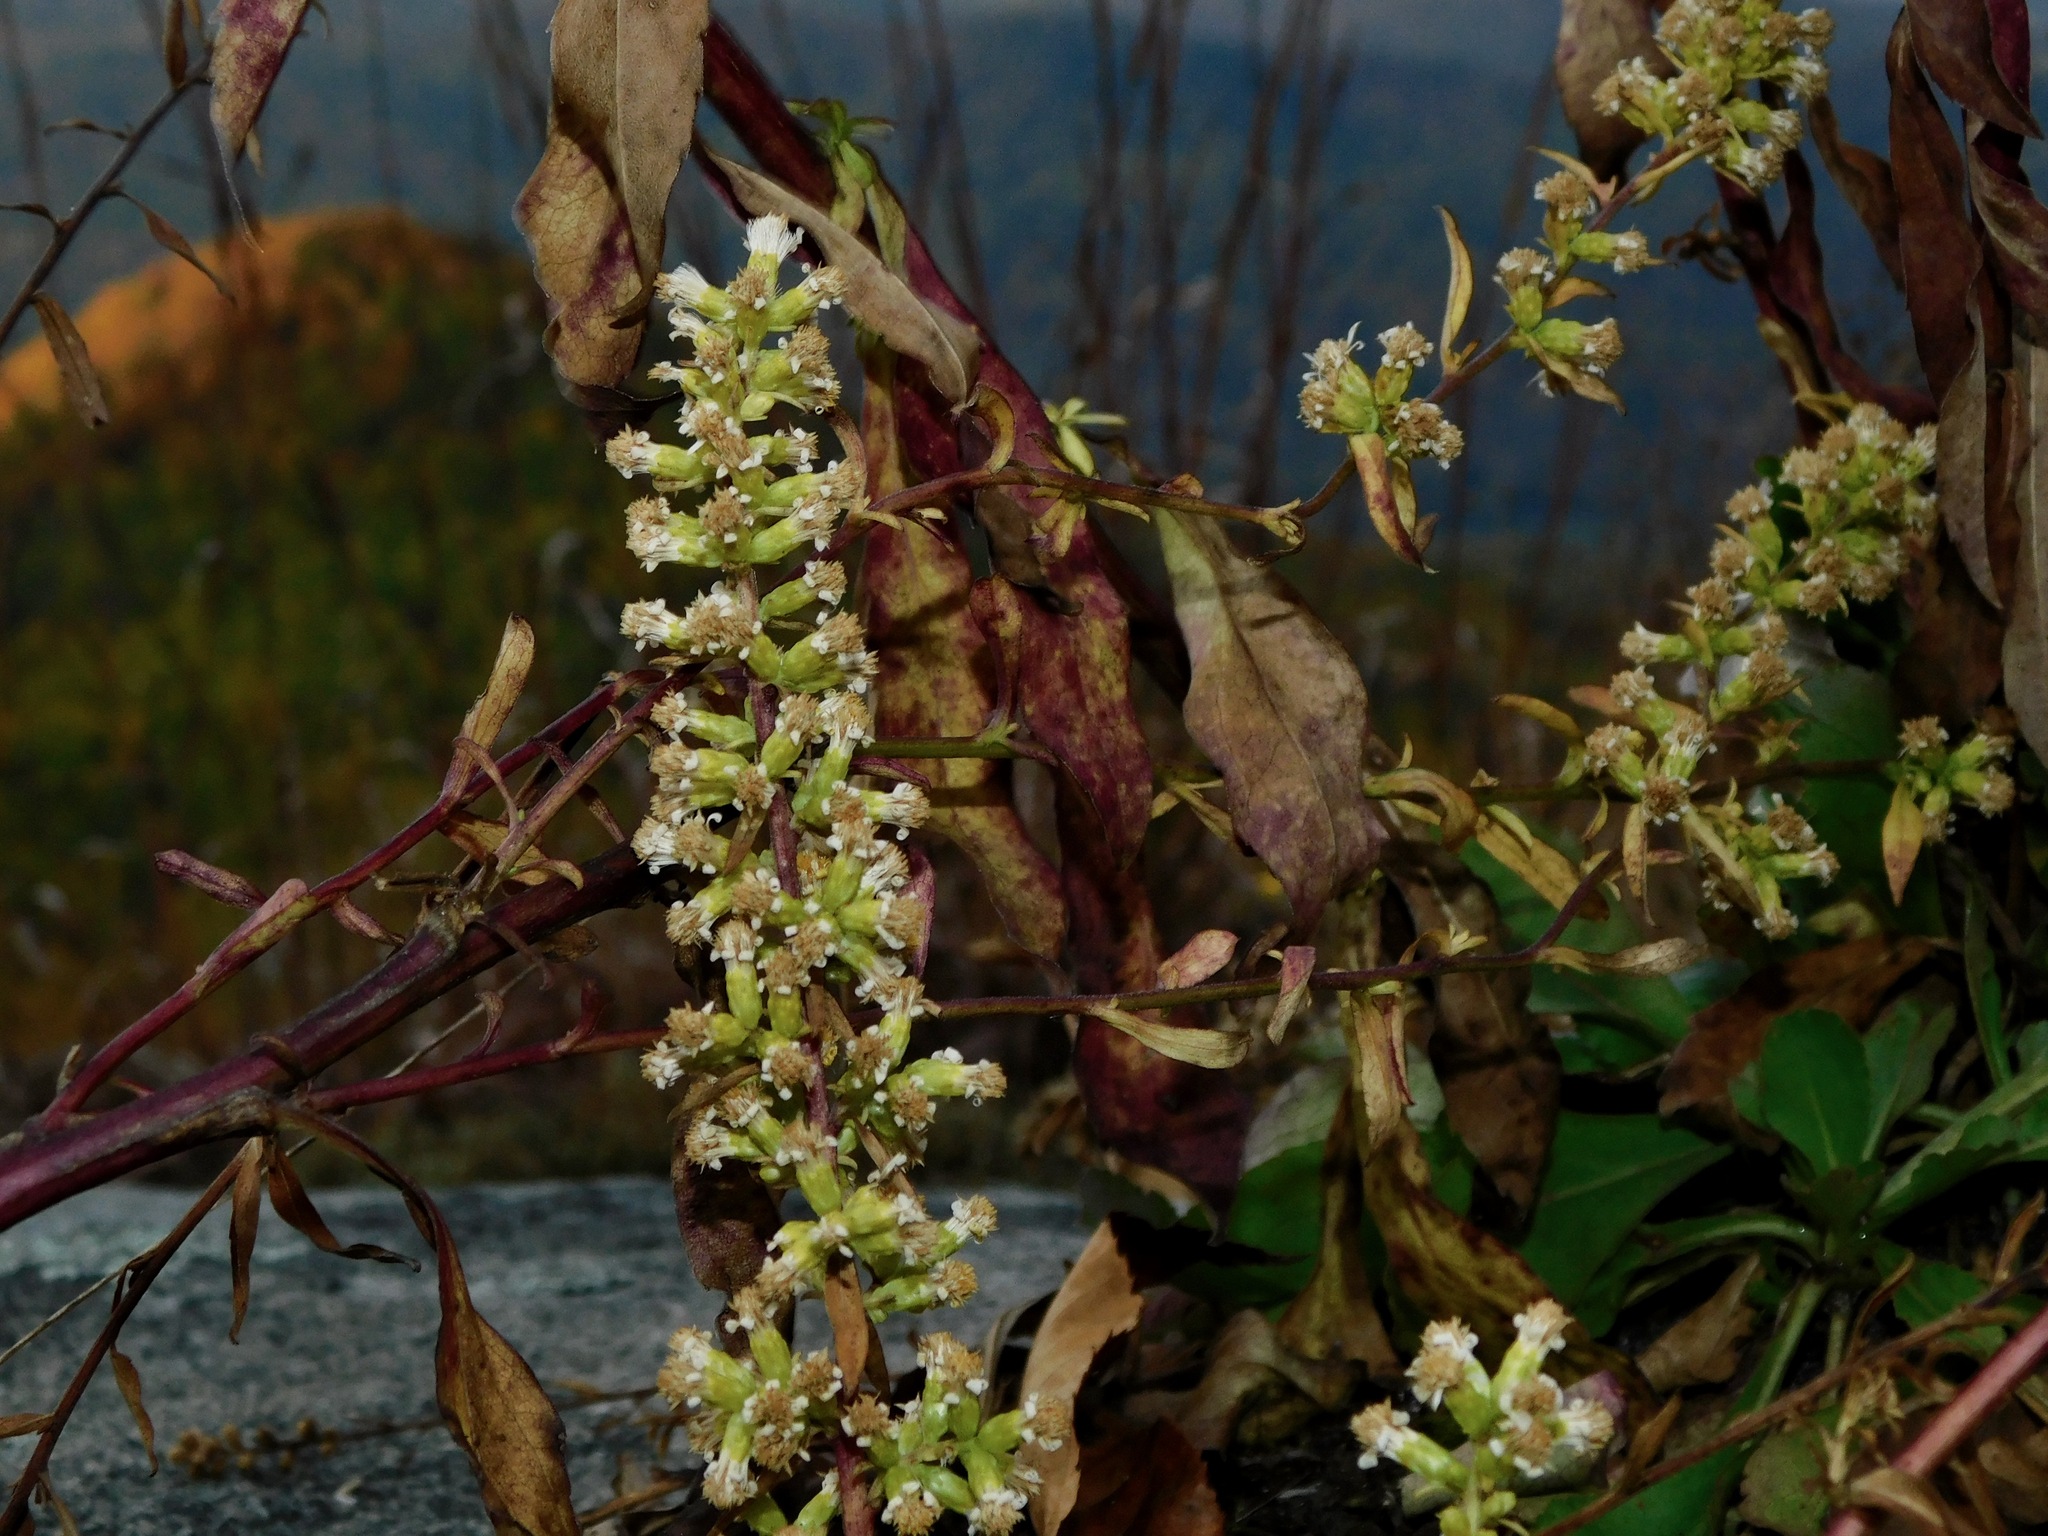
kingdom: Plantae
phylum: Tracheophyta
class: Magnoliopsida
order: Asterales
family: Asteraceae
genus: Solidago
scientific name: Solidago erecta
